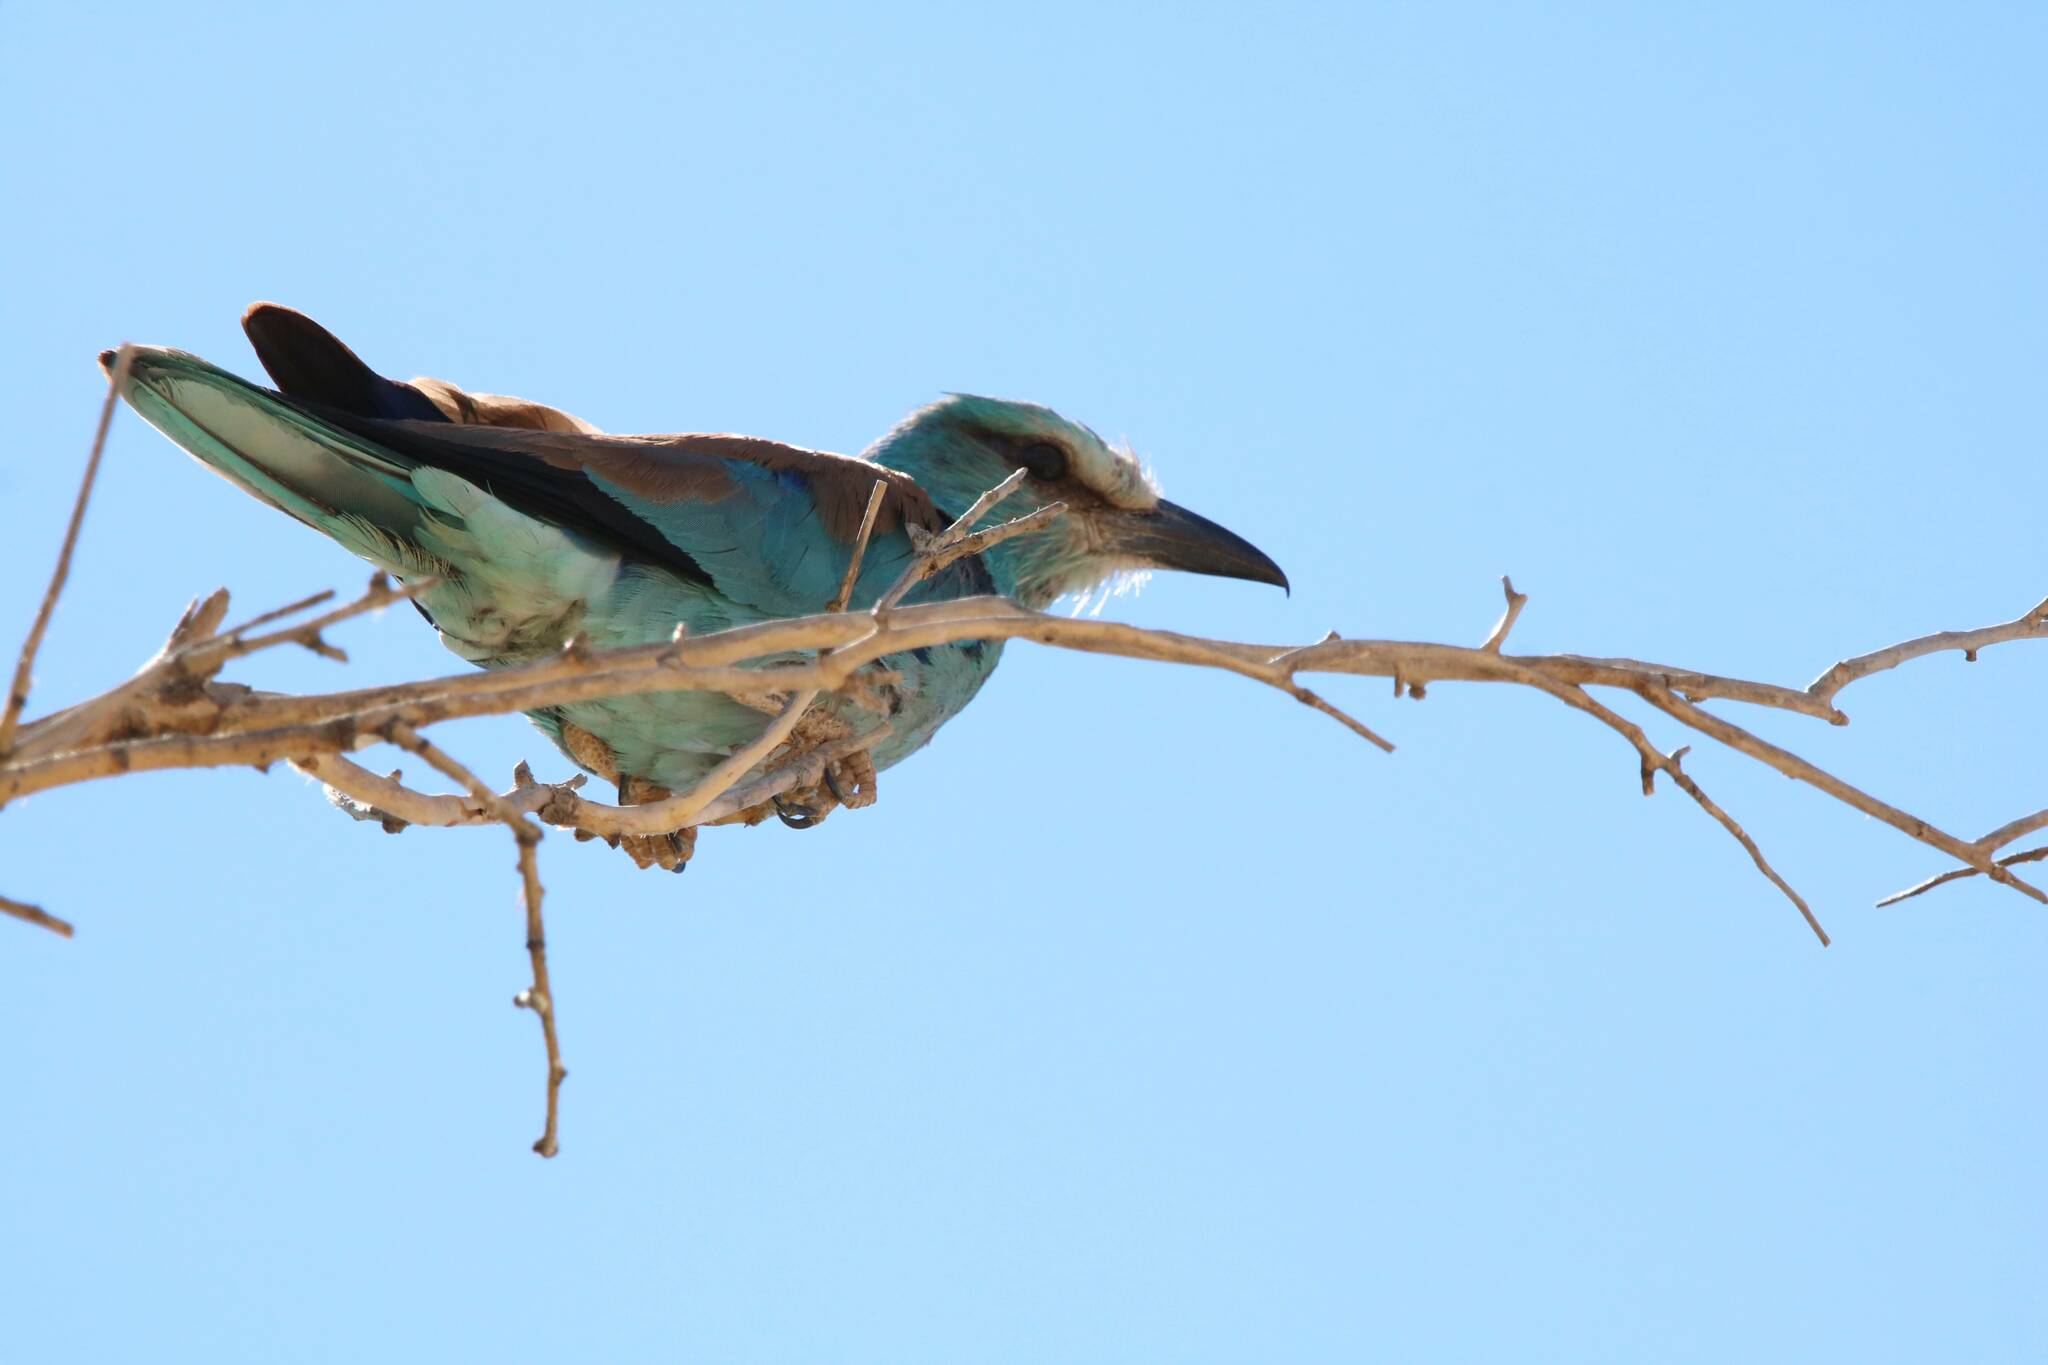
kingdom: Animalia
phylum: Chordata
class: Aves
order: Coraciiformes
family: Coraciidae
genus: Coracias
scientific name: Coracias garrulus
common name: European roller
